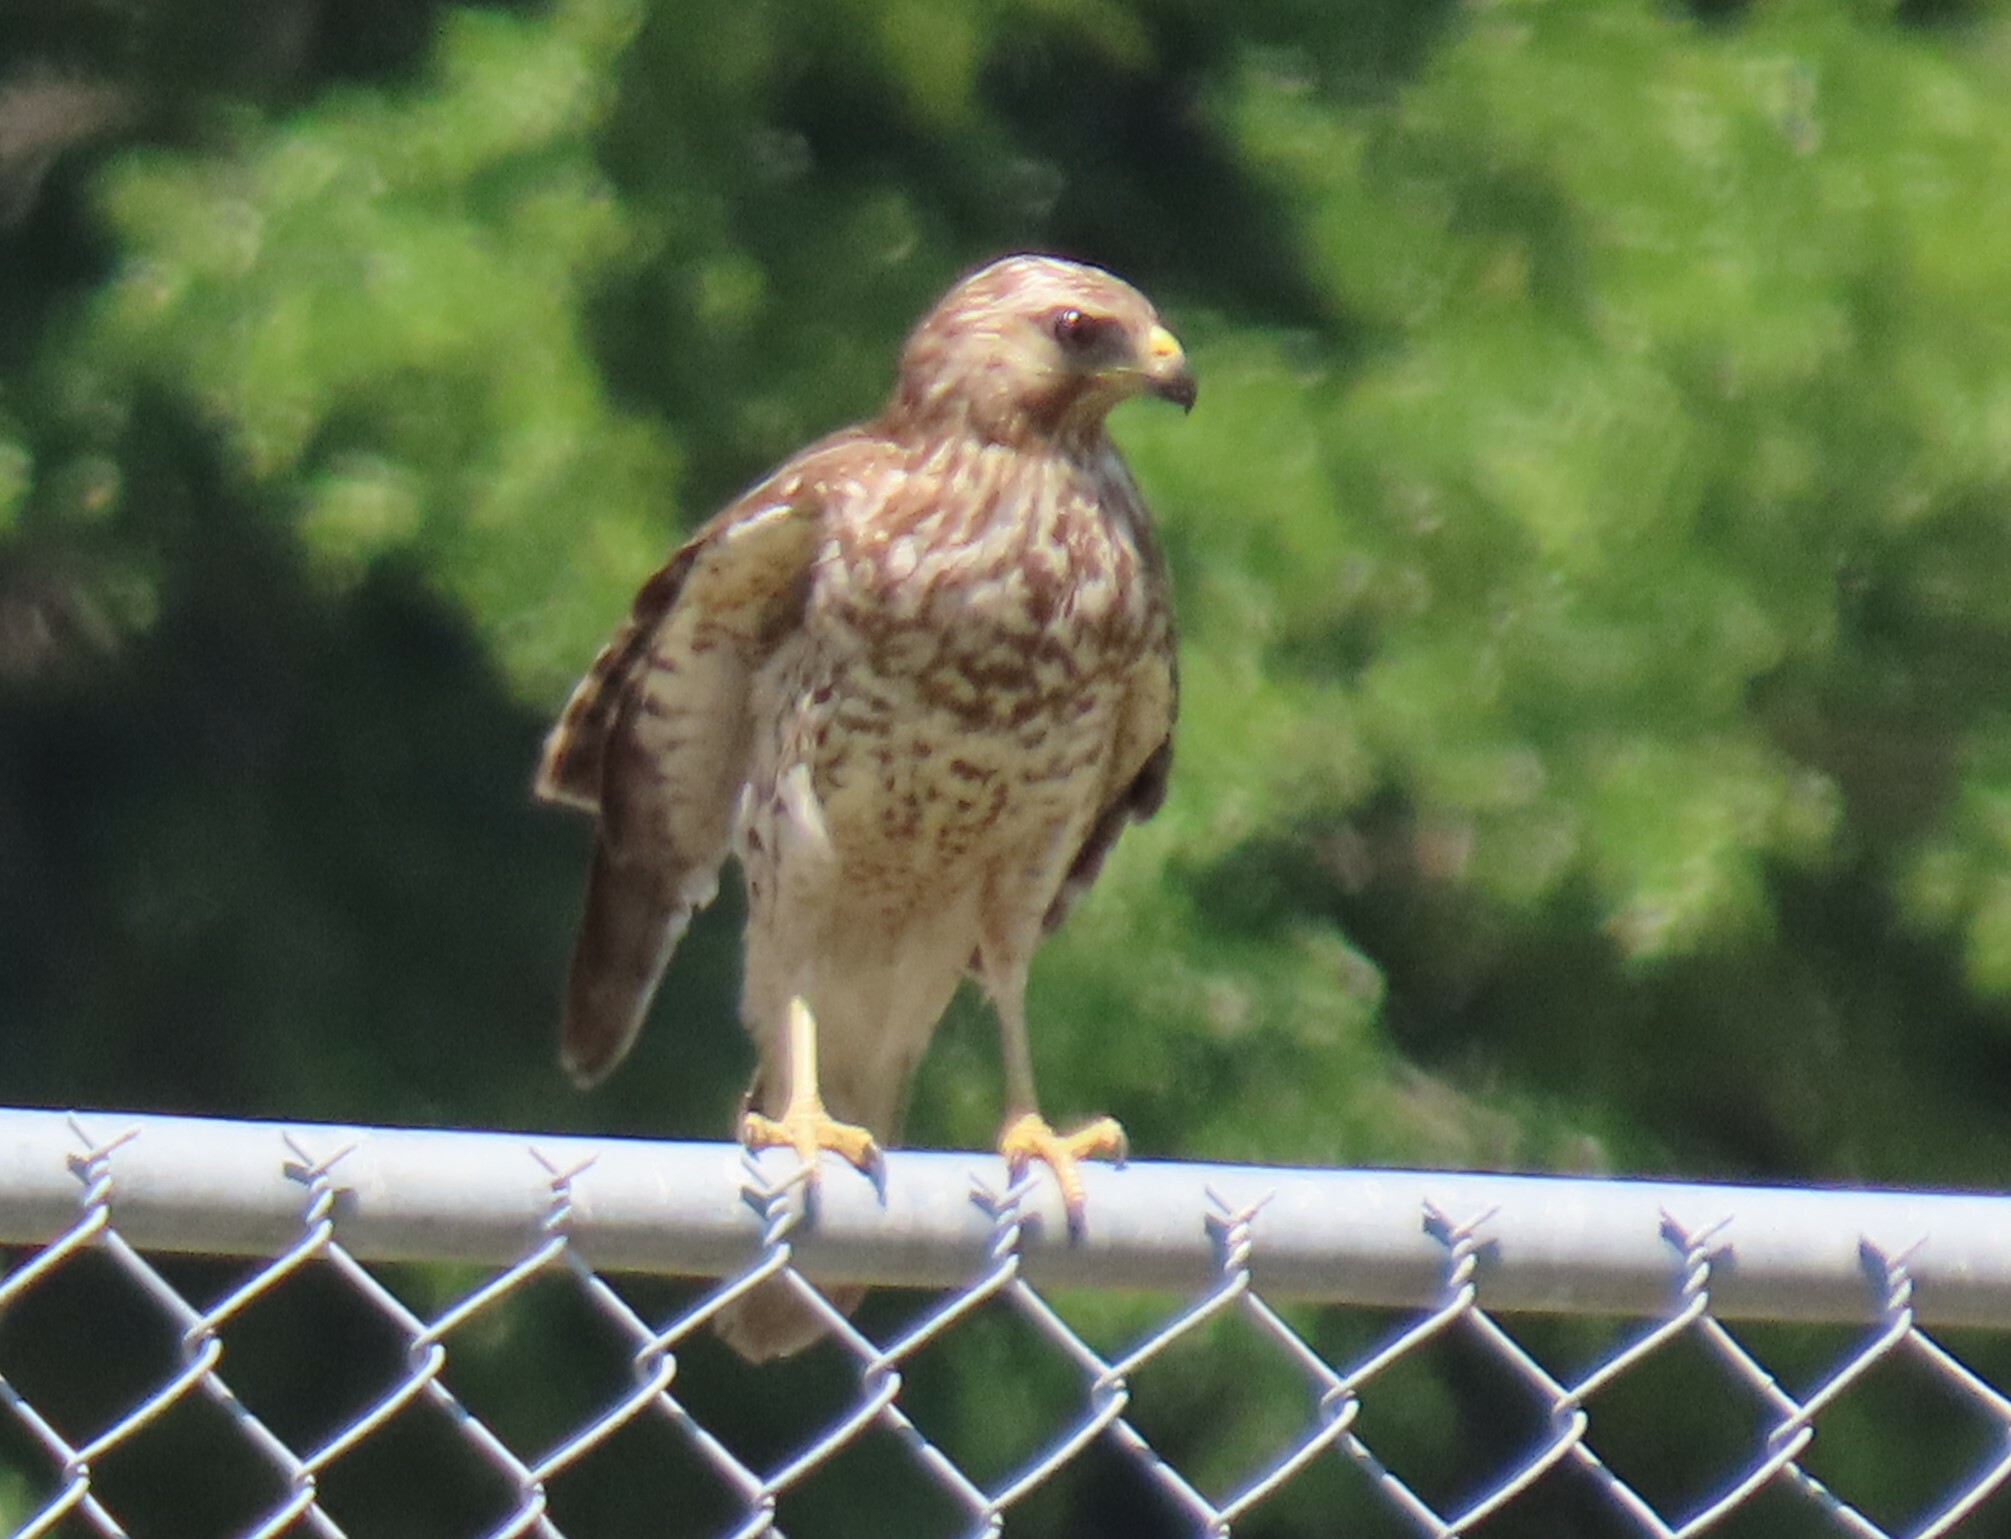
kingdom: Animalia
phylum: Chordata
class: Aves
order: Accipitriformes
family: Accipitridae
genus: Buteo
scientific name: Buteo lineatus
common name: Red-shouldered hawk
